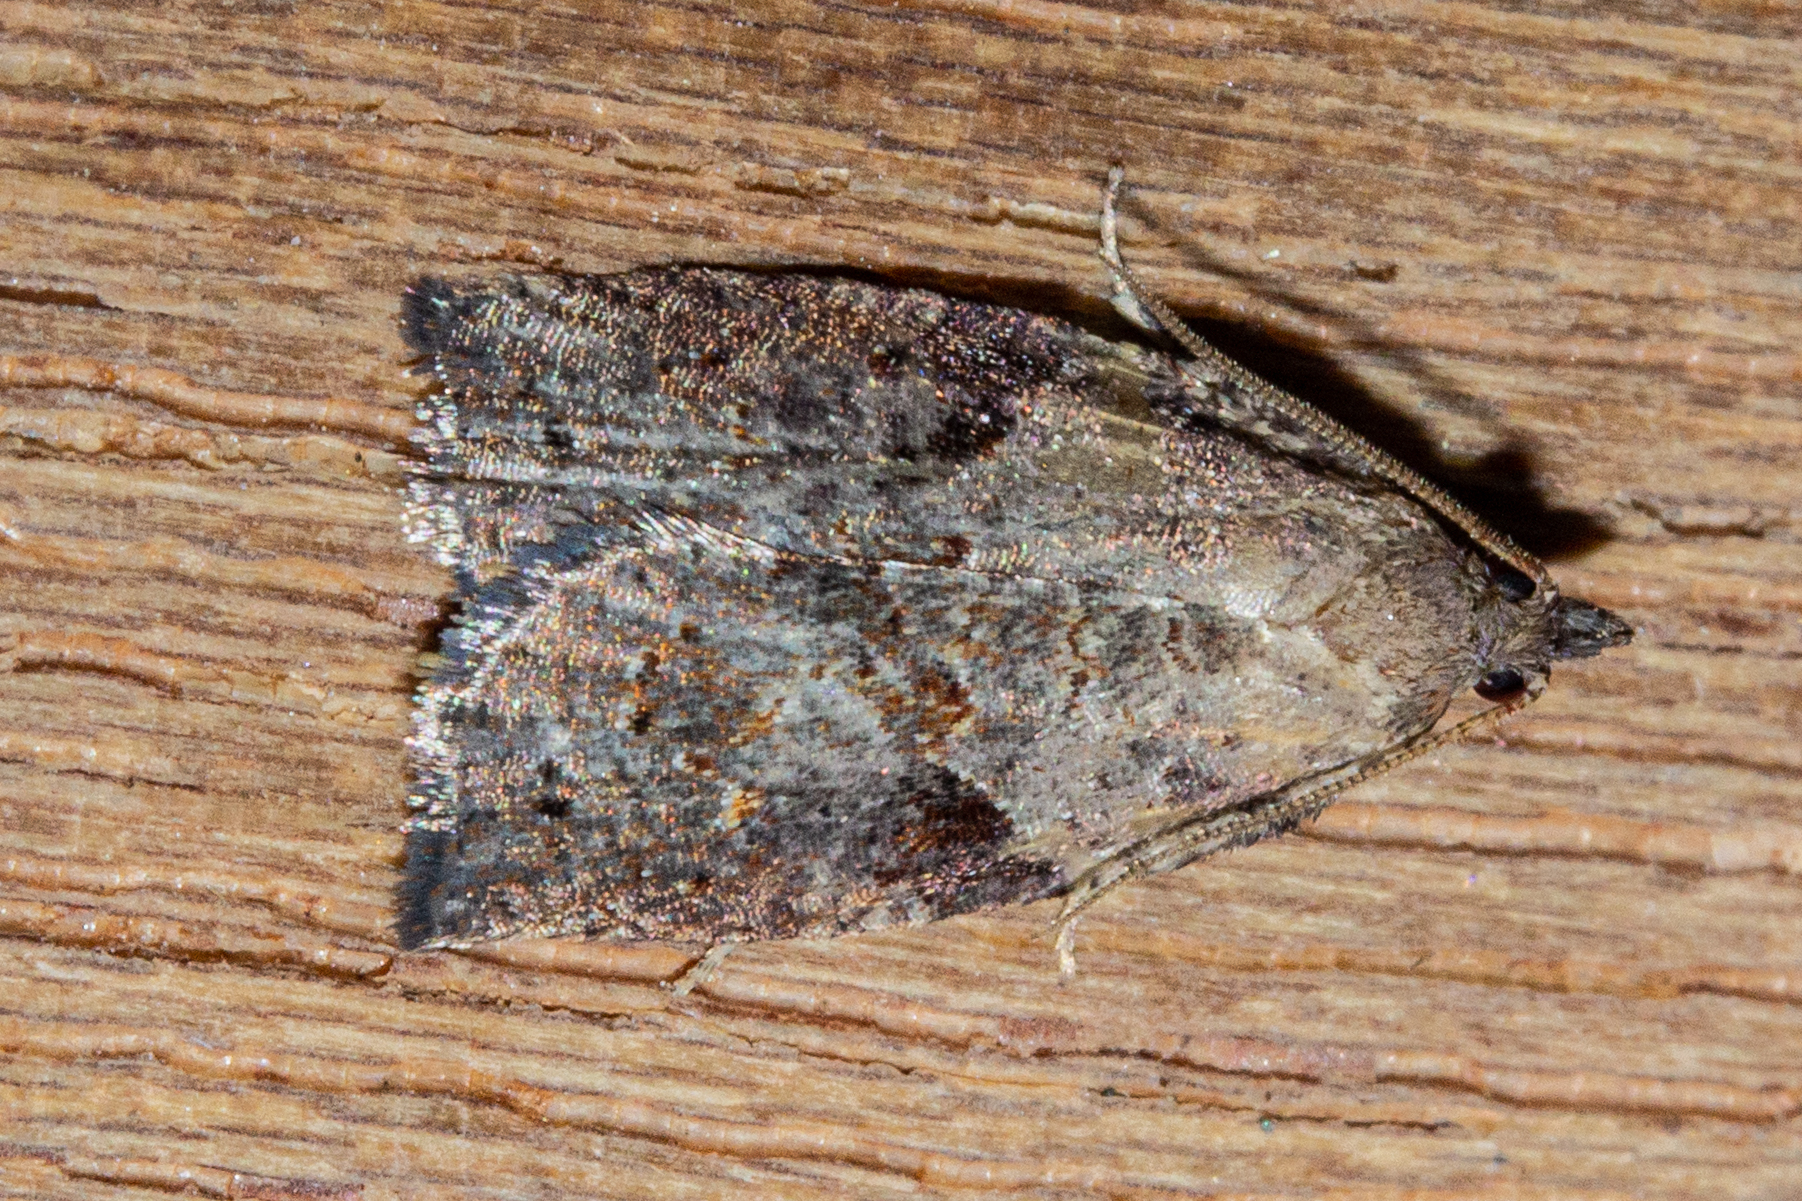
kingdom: Animalia
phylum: Arthropoda
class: Insecta
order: Lepidoptera
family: Tortricidae
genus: Apoctena
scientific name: Apoctena orthropis
